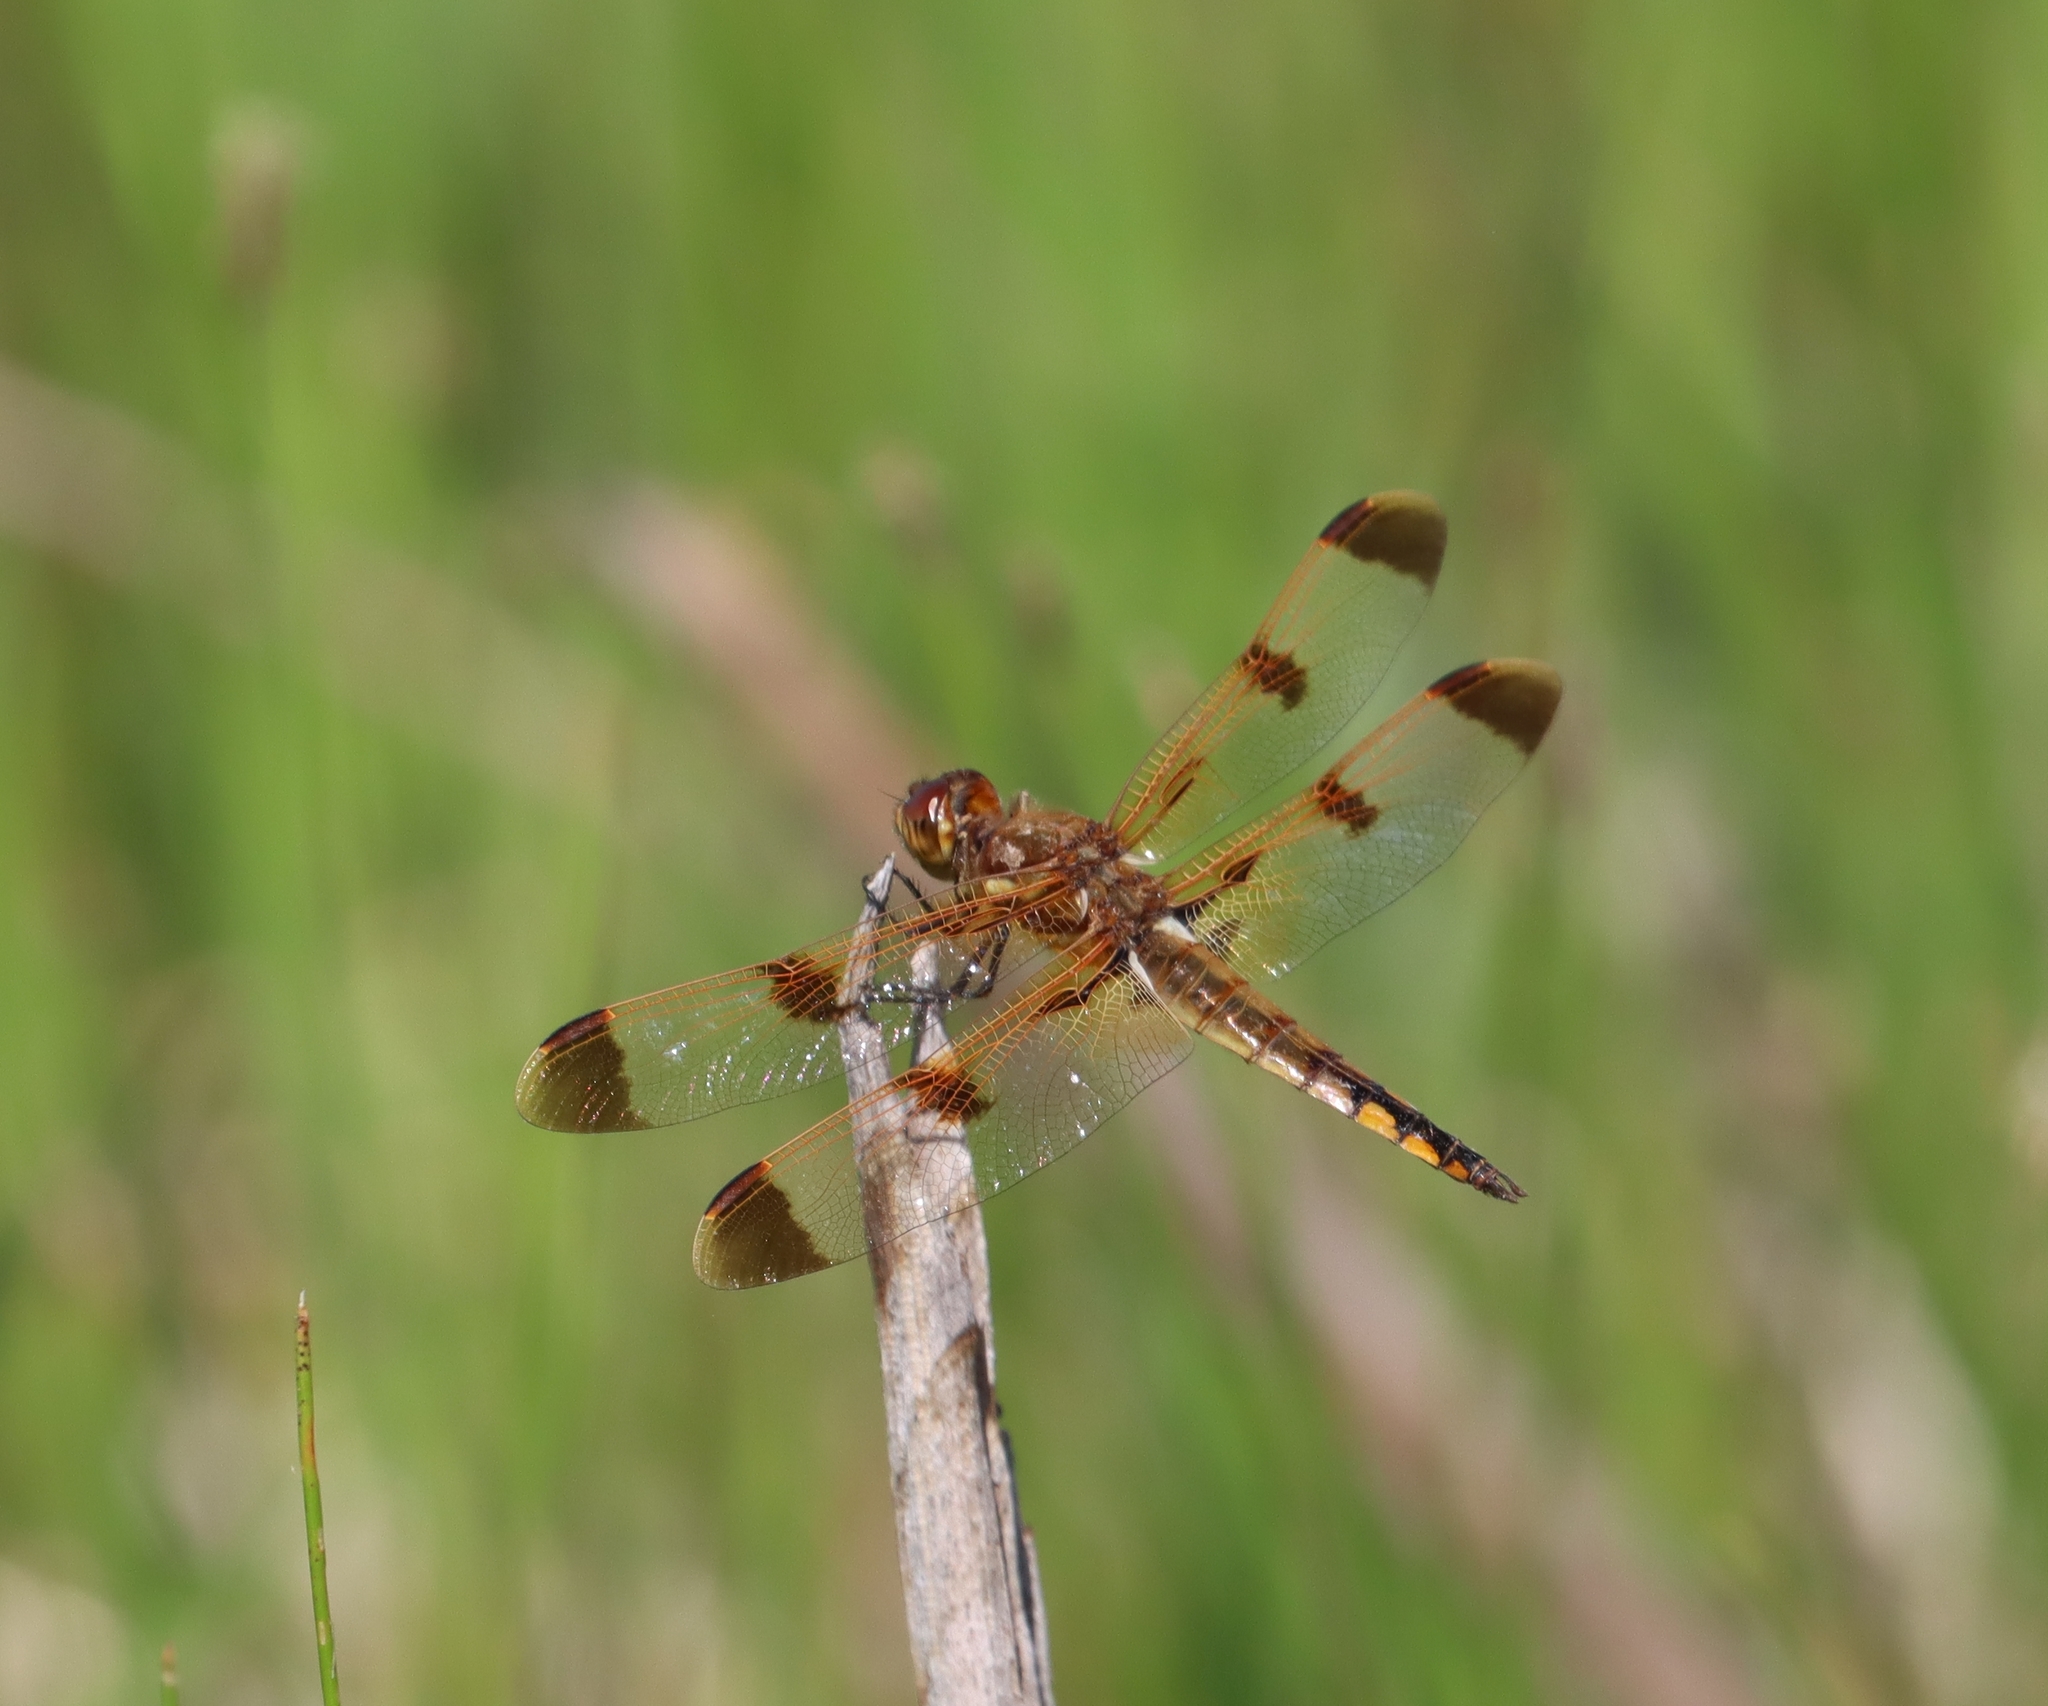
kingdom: Animalia
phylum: Arthropoda
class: Insecta
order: Odonata
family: Libellulidae
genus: Libellula
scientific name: Libellula semifasciata
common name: Painted skimmer
